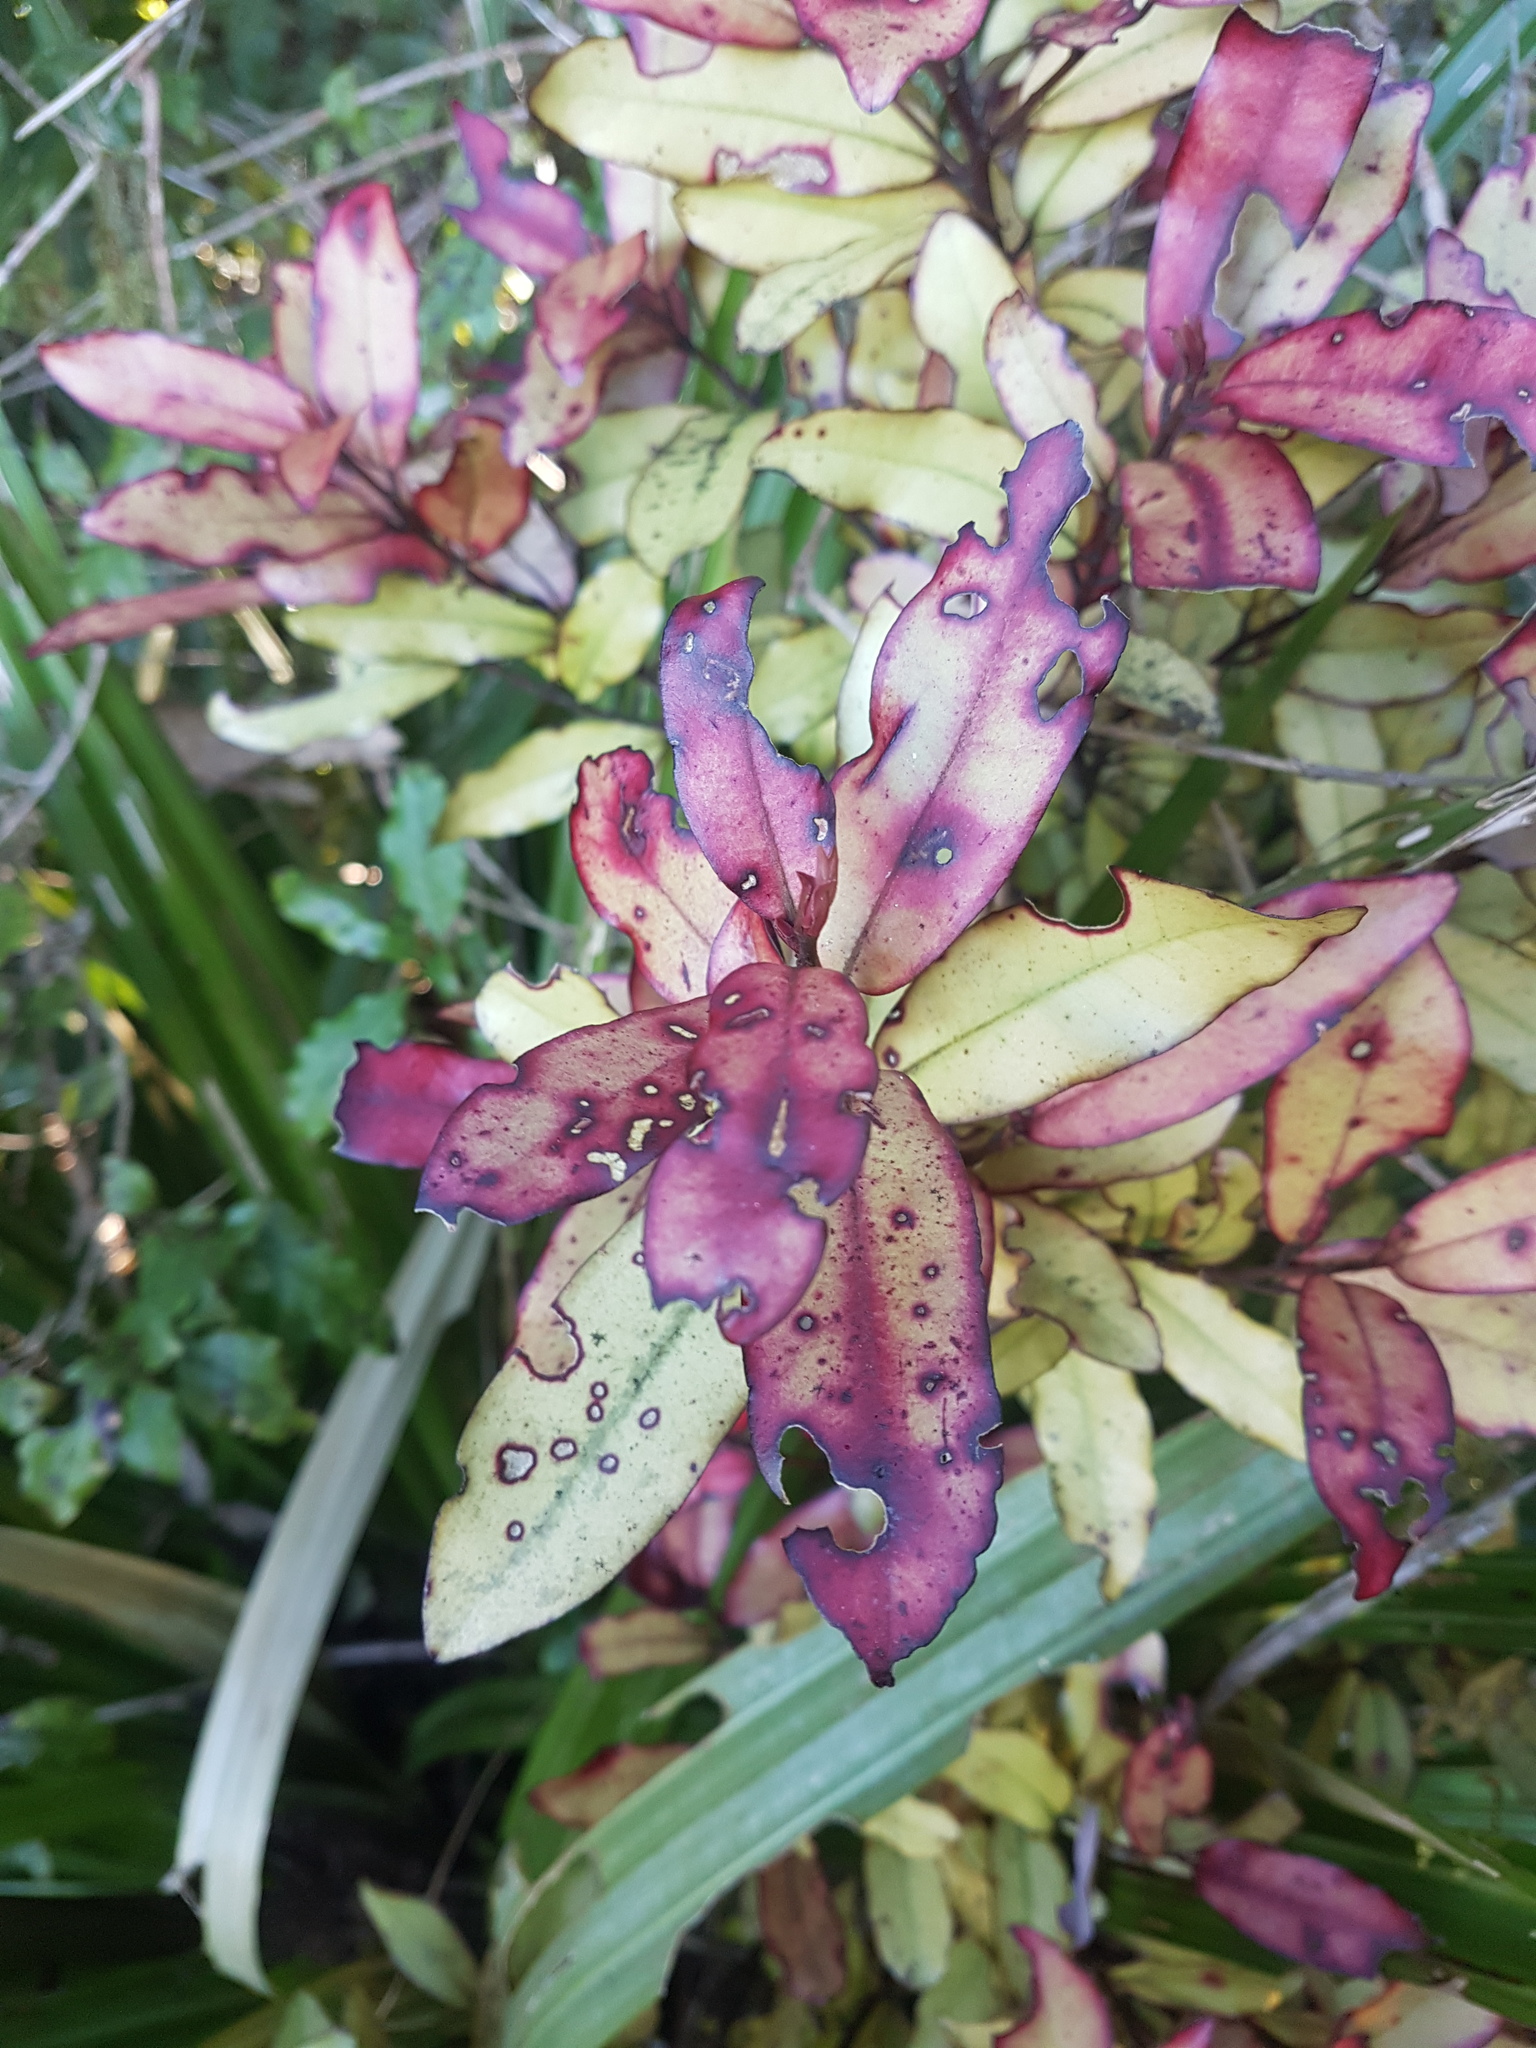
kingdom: Plantae
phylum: Tracheophyta
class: Magnoliopsida
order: Canellales
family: Winteraceae
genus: Pseudowintera
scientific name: Pseudowintera colorata
